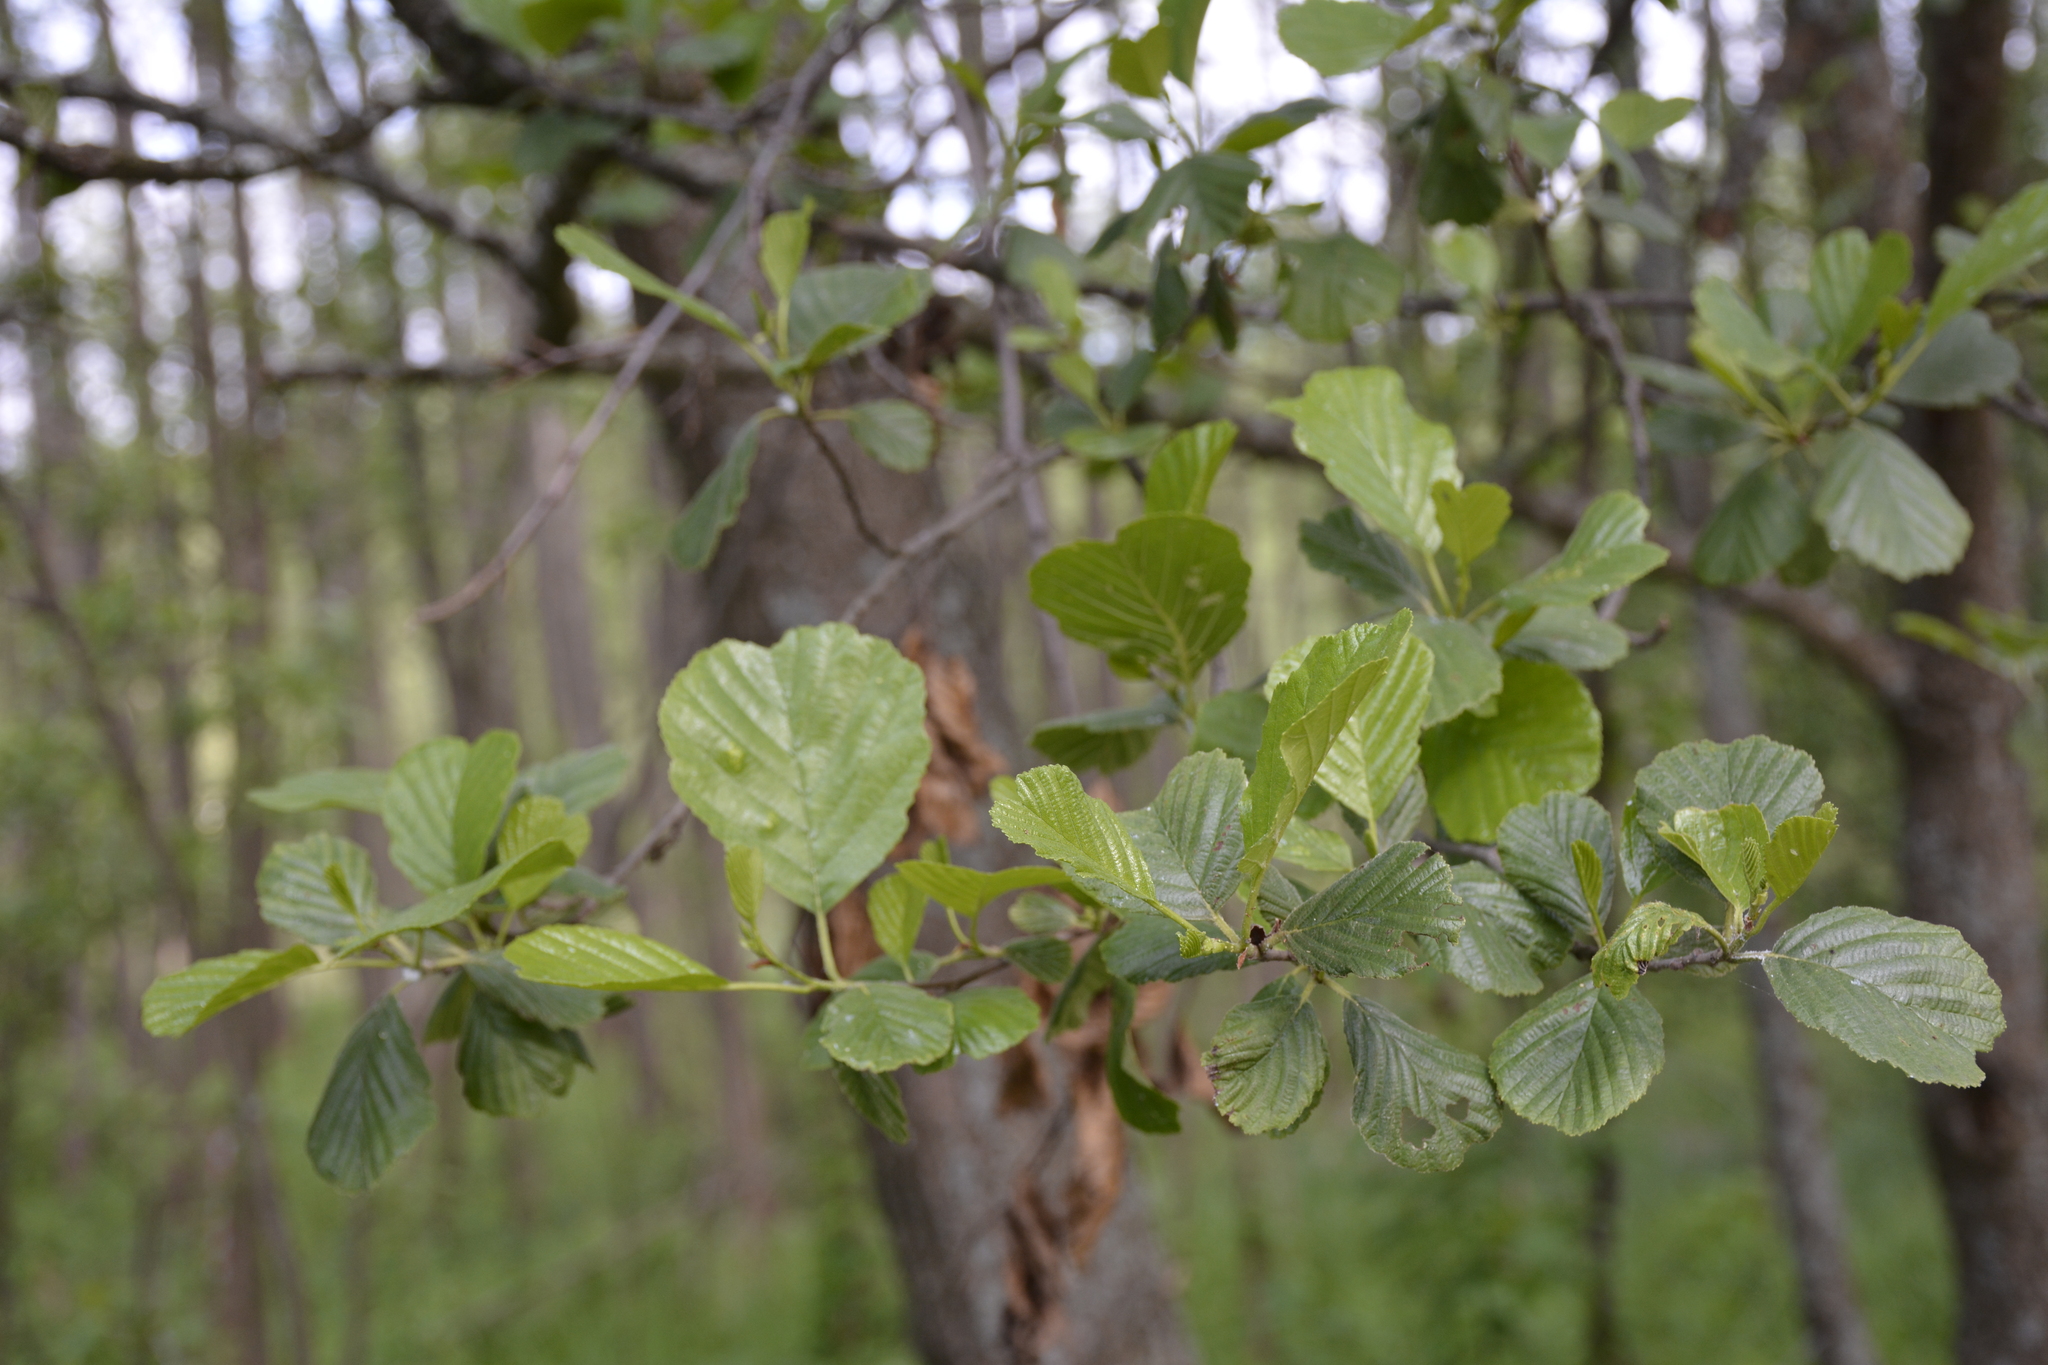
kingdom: Plantae
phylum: Tracheophyta
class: Magnoliopsida
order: Fagales
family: Betulaceae
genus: Alnus
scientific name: Alnus glutinosa
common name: Black alder
